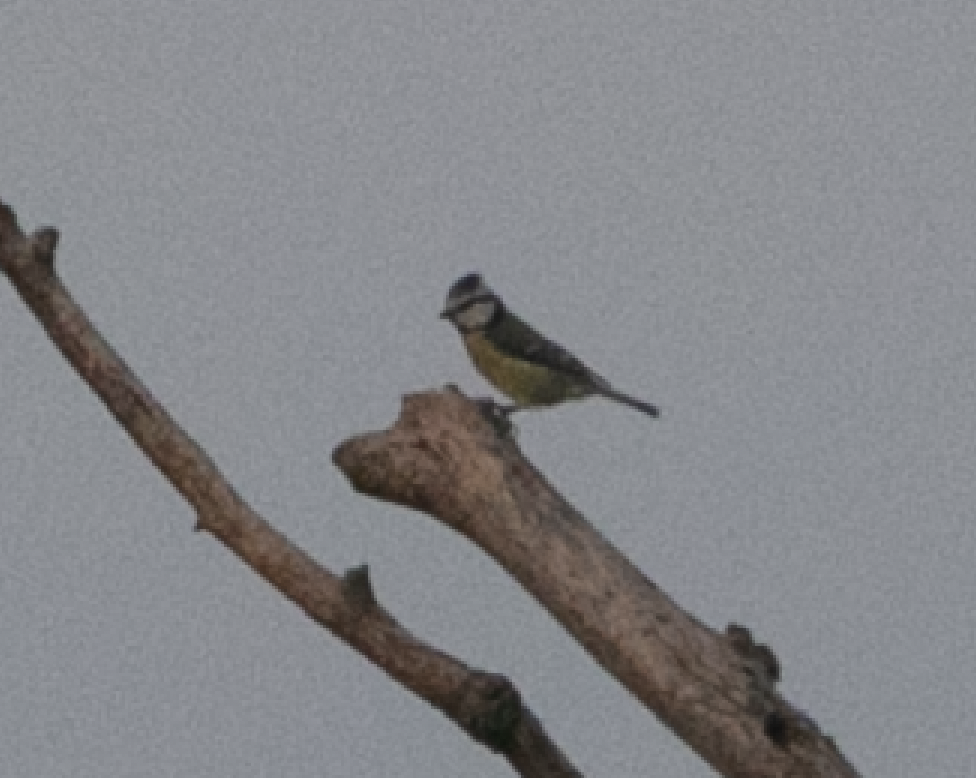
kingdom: Animalia
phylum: Chordata
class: Aves
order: Passeriformes
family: Paridae
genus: Cyanistes
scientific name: Cyanistes caeruleus
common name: Eurasian blue tit
